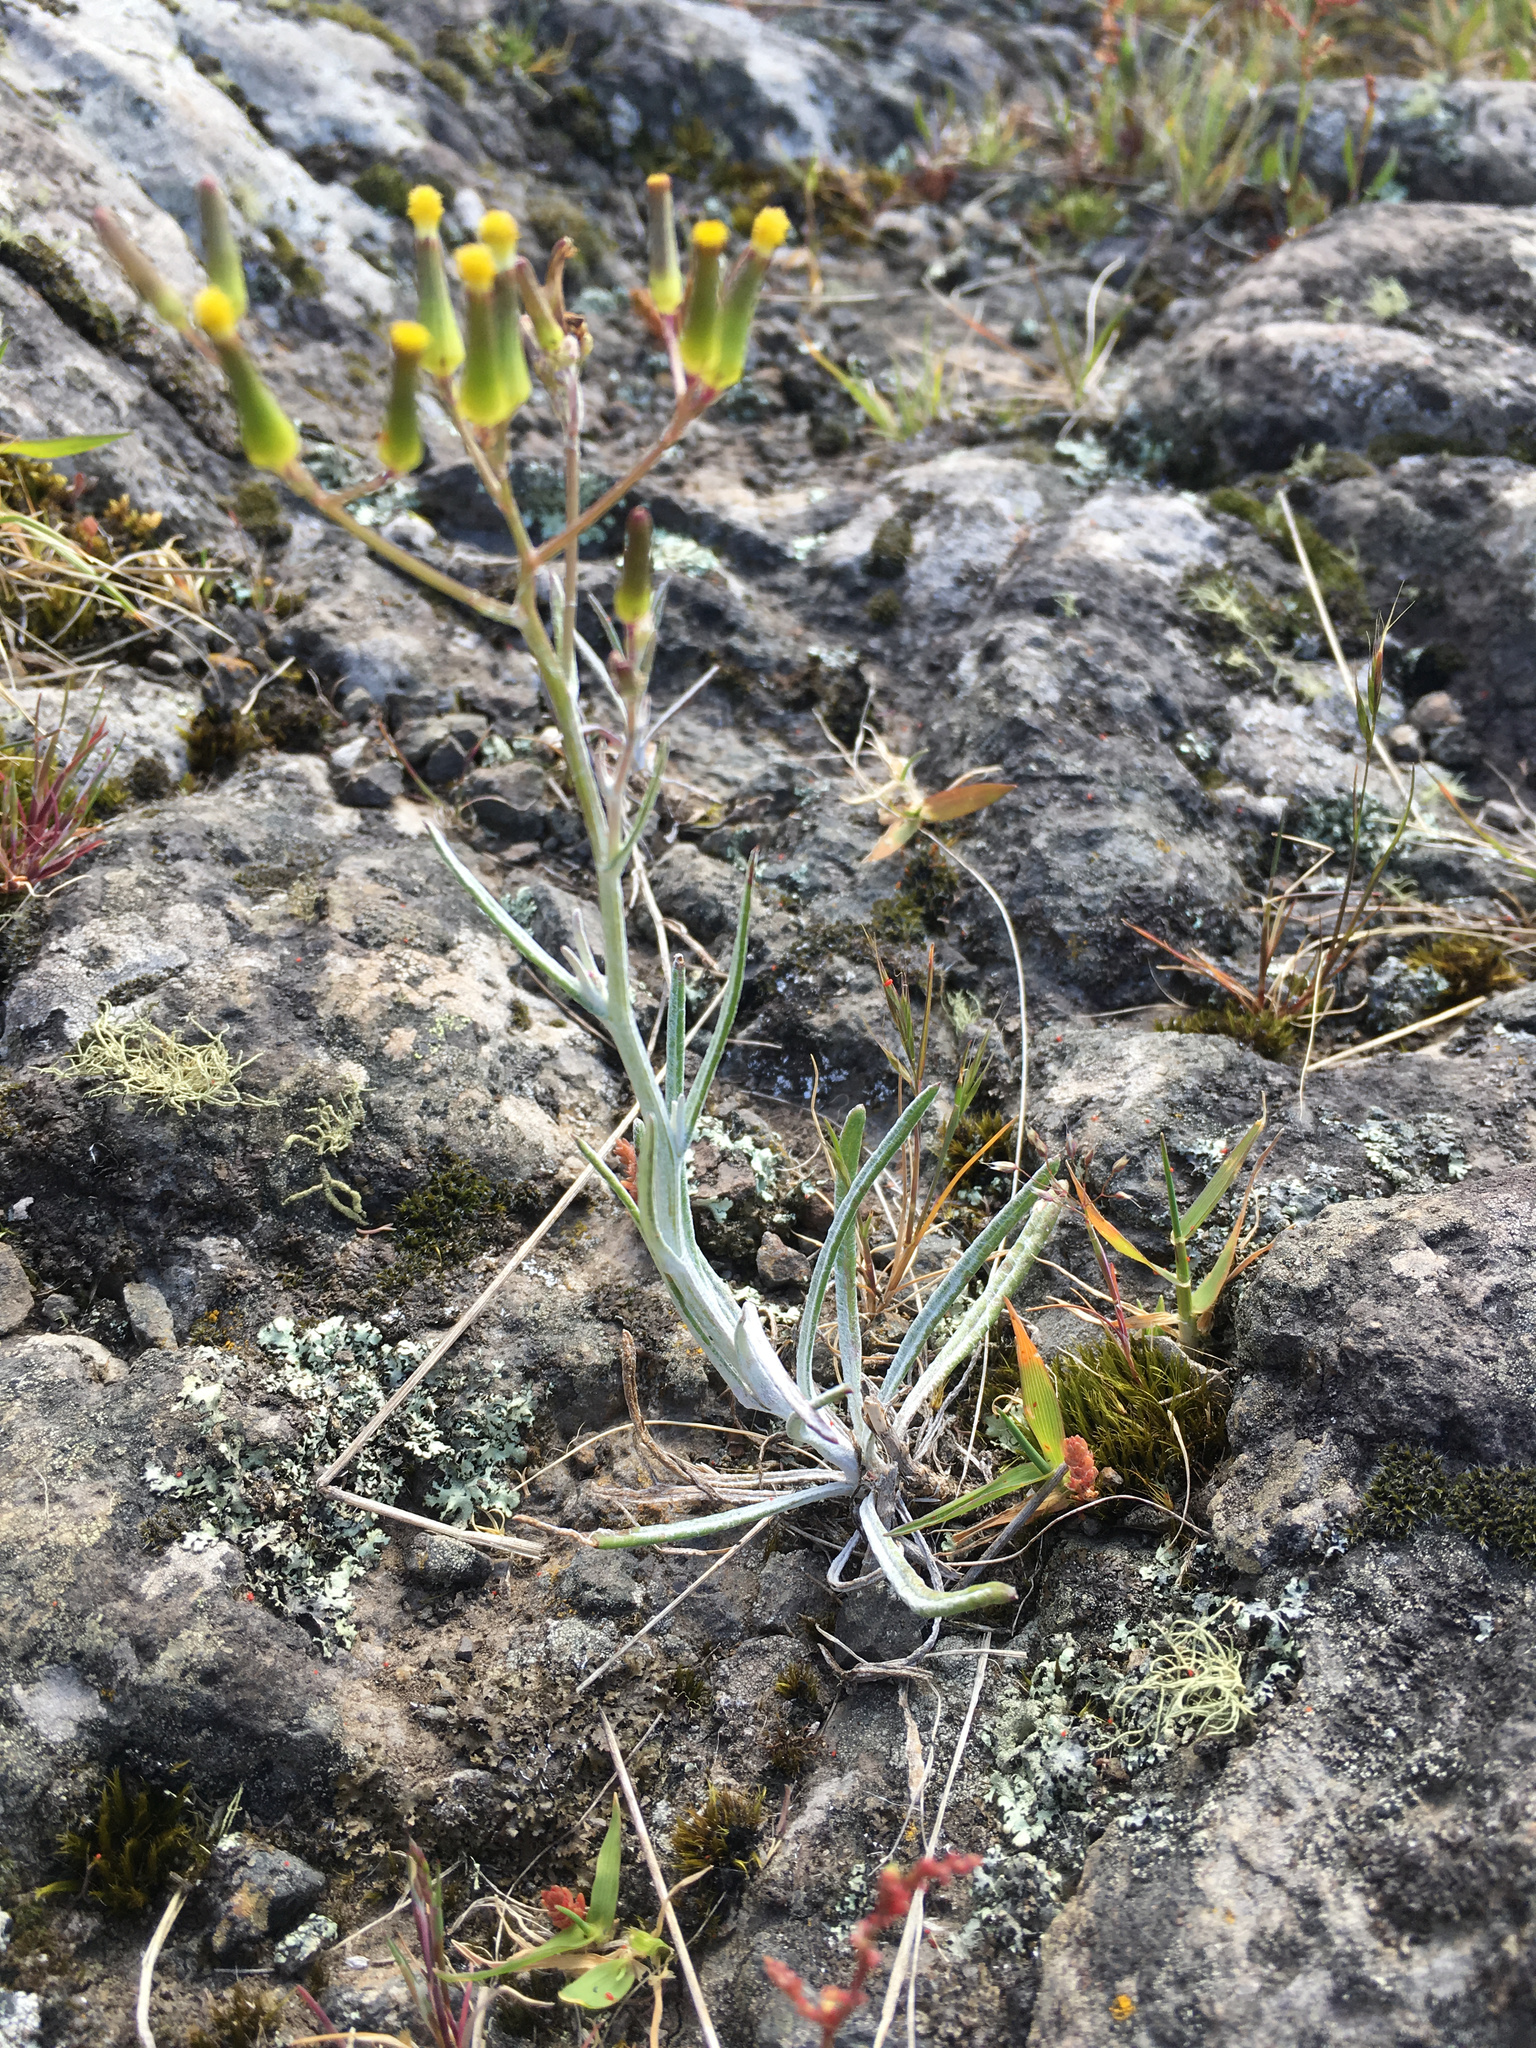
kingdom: Plantae
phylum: Tracheophyta
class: Magnoliopsida
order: Asterales
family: Asteraceae
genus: Senecio
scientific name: Senecio quadridentatus
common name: Cotton fireweed
